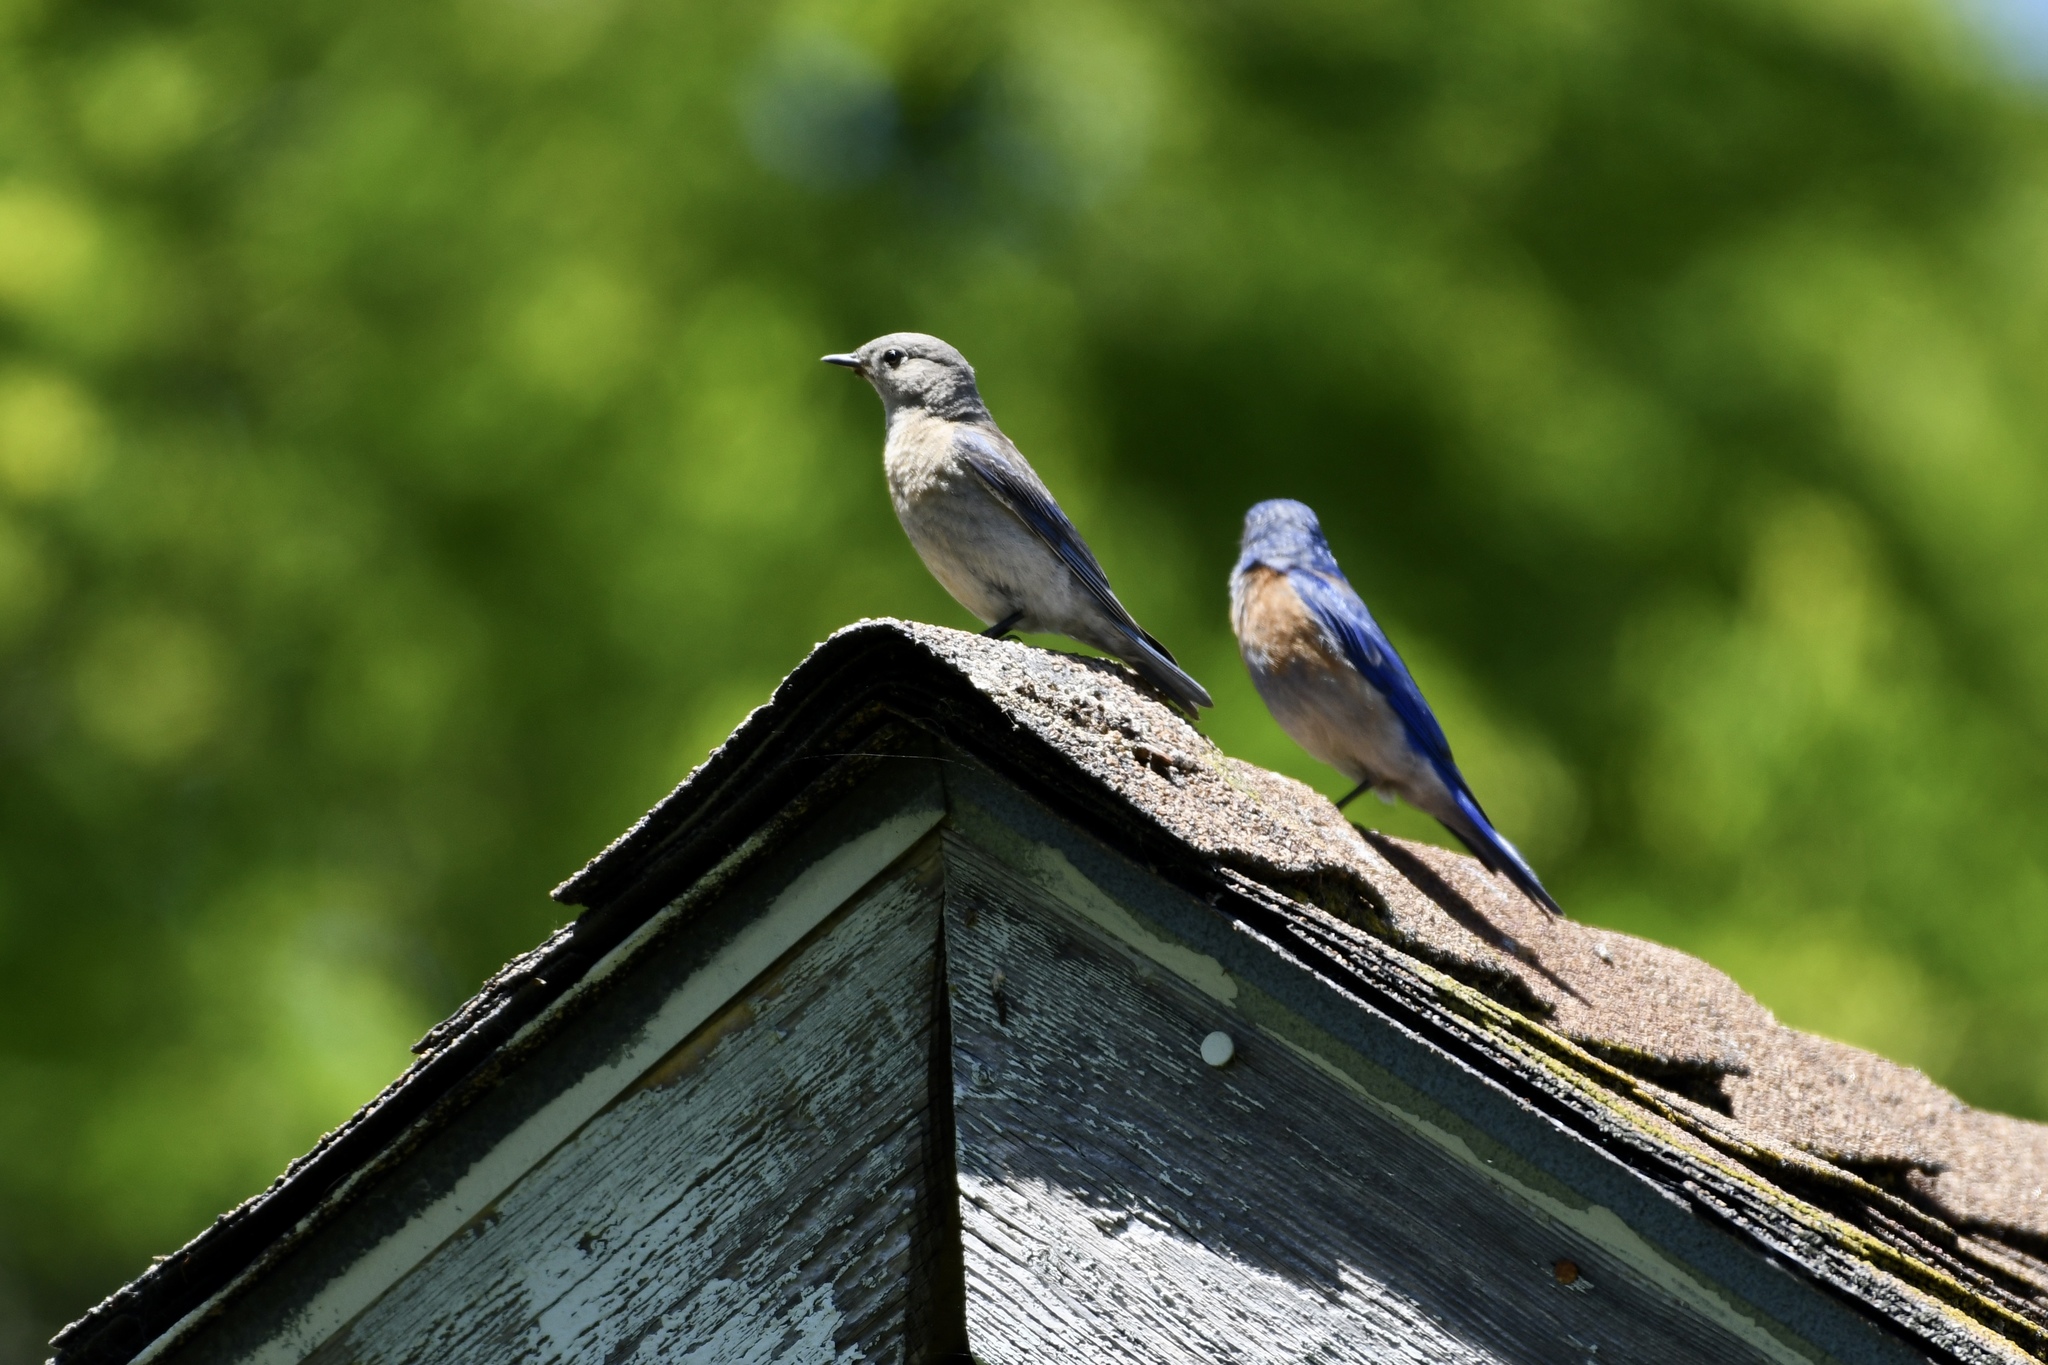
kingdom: Animalia
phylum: Chordata
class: Aves
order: Passeriformes
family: Turdidae
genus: Sialia
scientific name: Sialia mexicana
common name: Western bluebird
